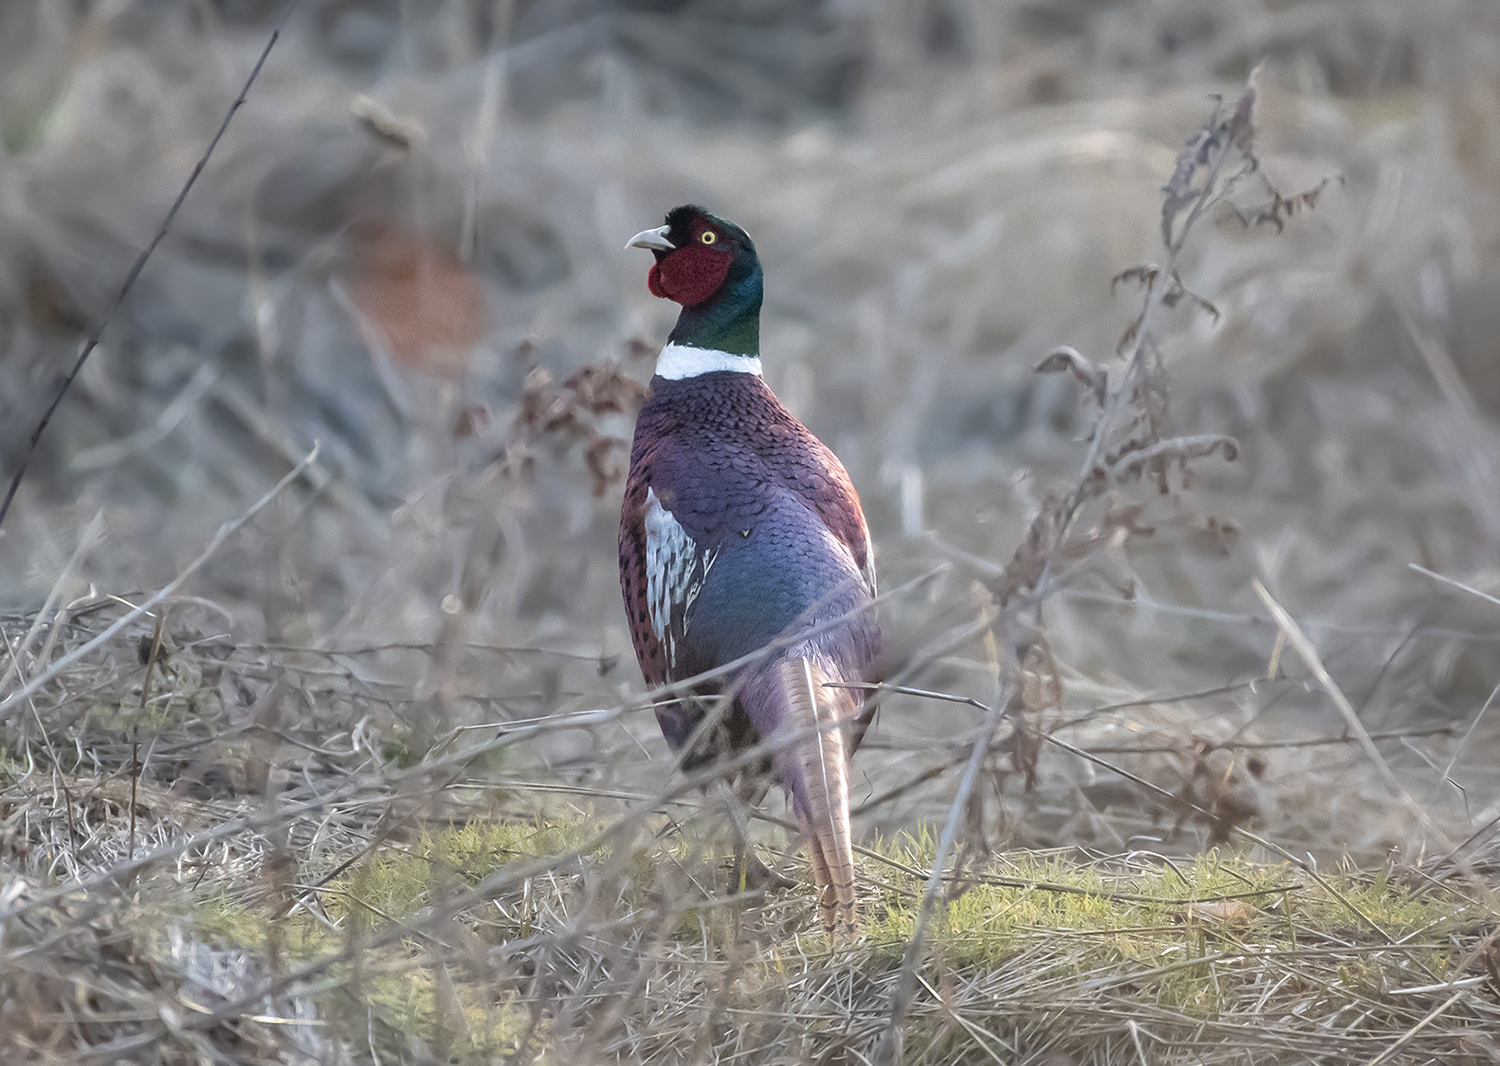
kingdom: Animalia
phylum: Chordata
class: Aves
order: Galliformes
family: Phasianidae
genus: Phasianus
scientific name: Phasianus colchicus
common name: Common pheasant
